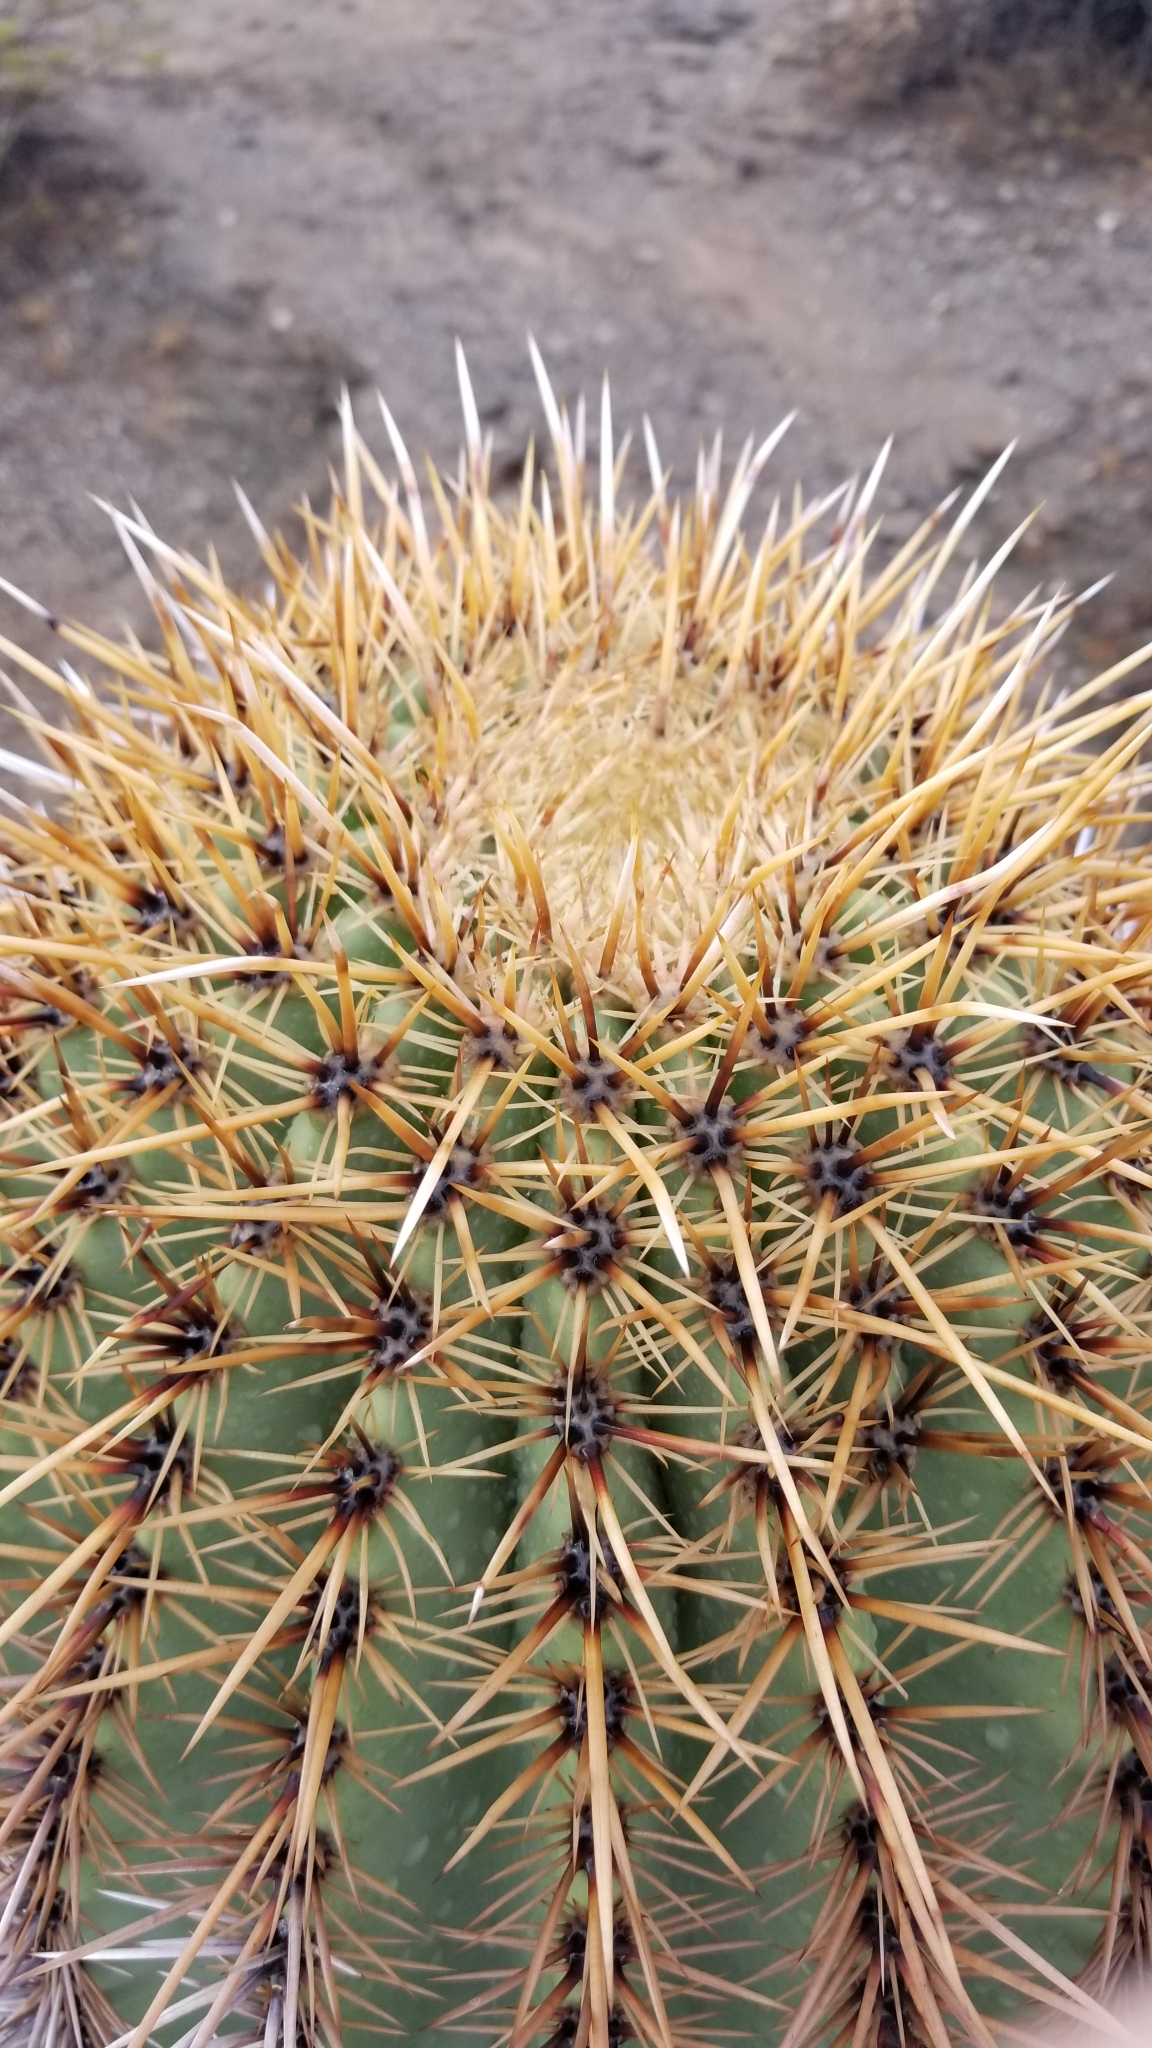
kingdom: Plantae
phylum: Tracheophyta
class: Magnoliopsida
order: Caryophyllales
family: Cactaceae
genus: Carnegiea
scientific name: Carnegiea gigantea
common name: Saguaro
